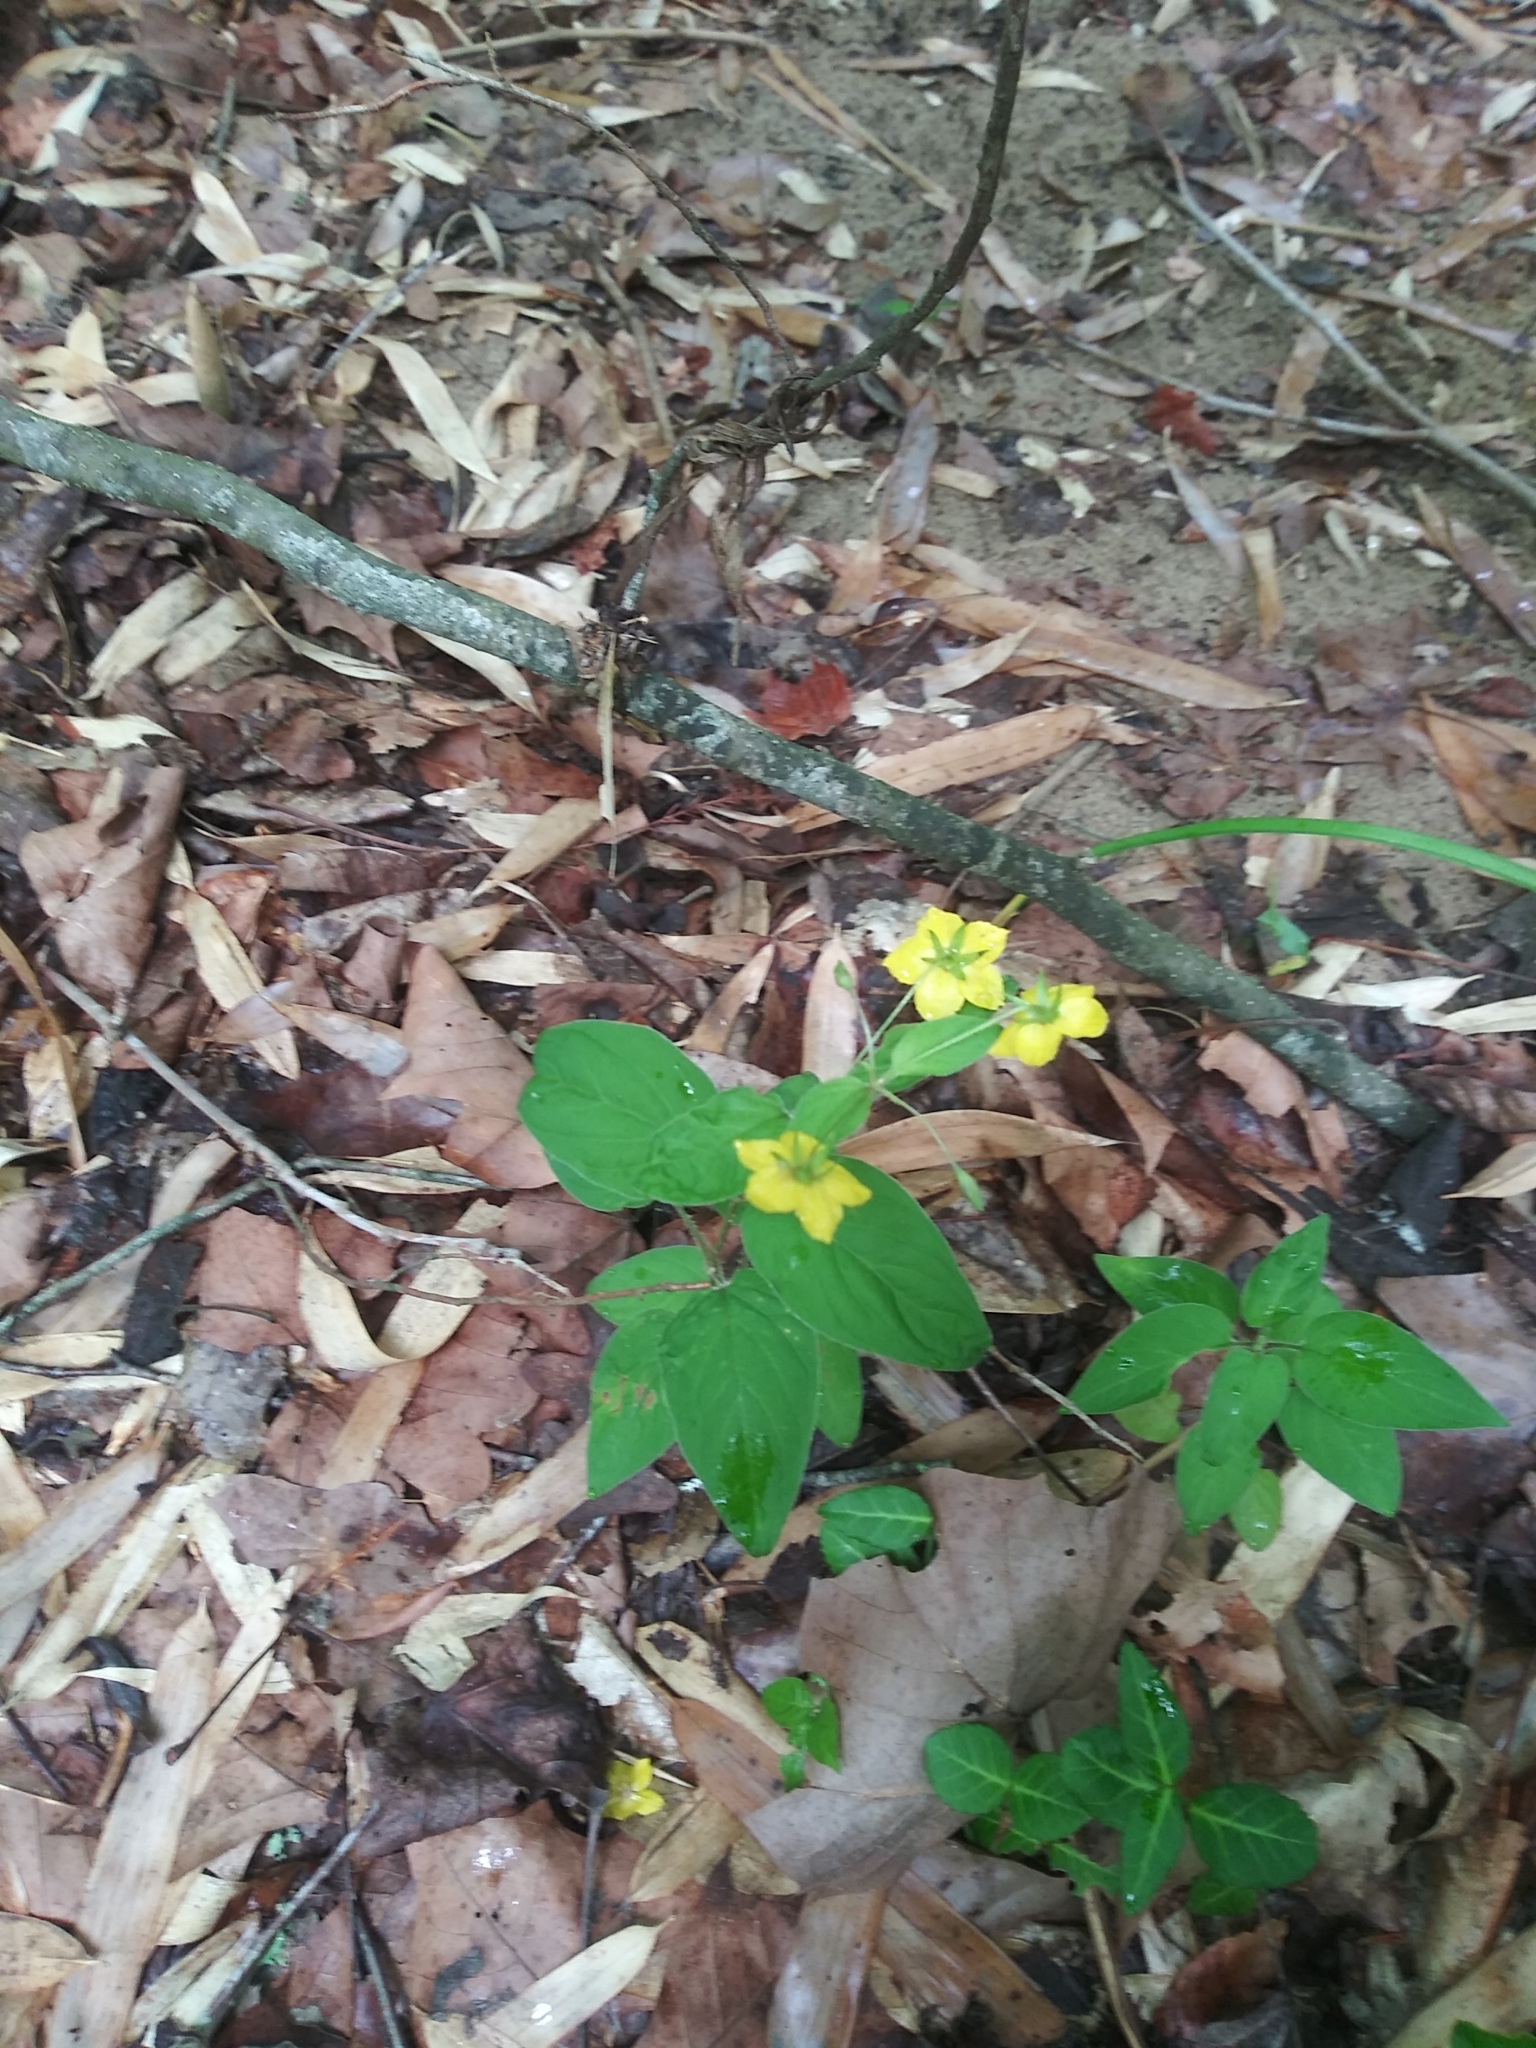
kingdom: Plantae
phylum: Tracheophyta
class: Magnoliopsida
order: Ericales
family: Primulaceae
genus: Lysimachia
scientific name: Lysimachia ciliata
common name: Fringed loosestrife
